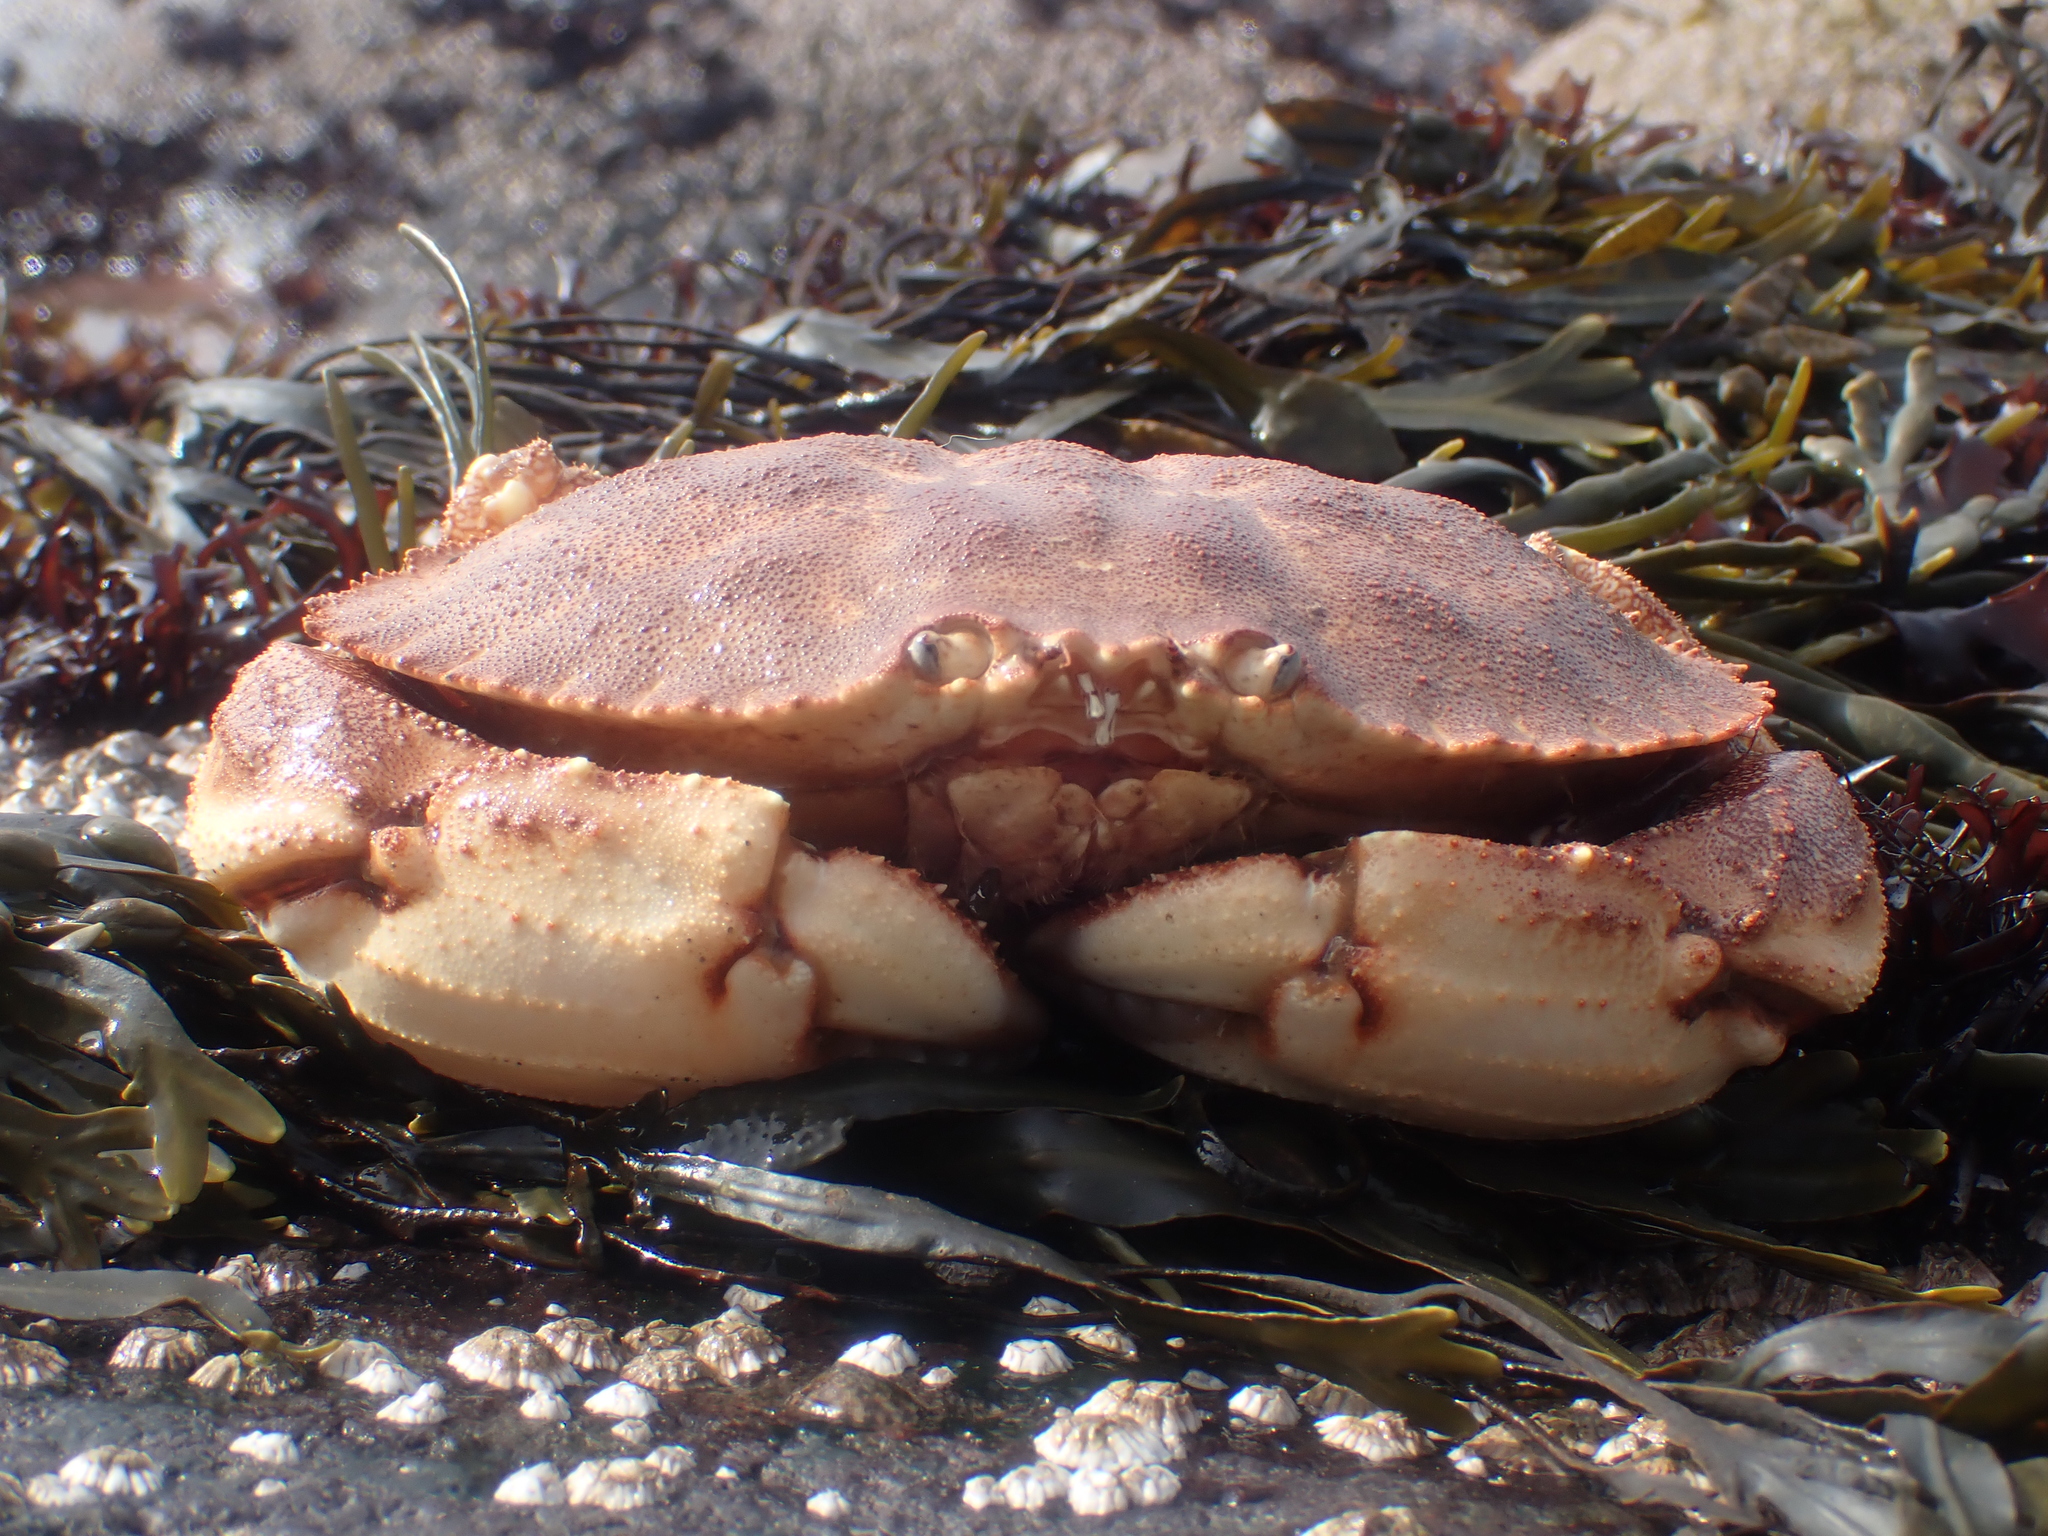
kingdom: Animalia
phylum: Arthropoda
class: Malacostraca
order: Decapoda
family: Cancridae
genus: Cancer
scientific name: Cancer borealis
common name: Jonah crab
